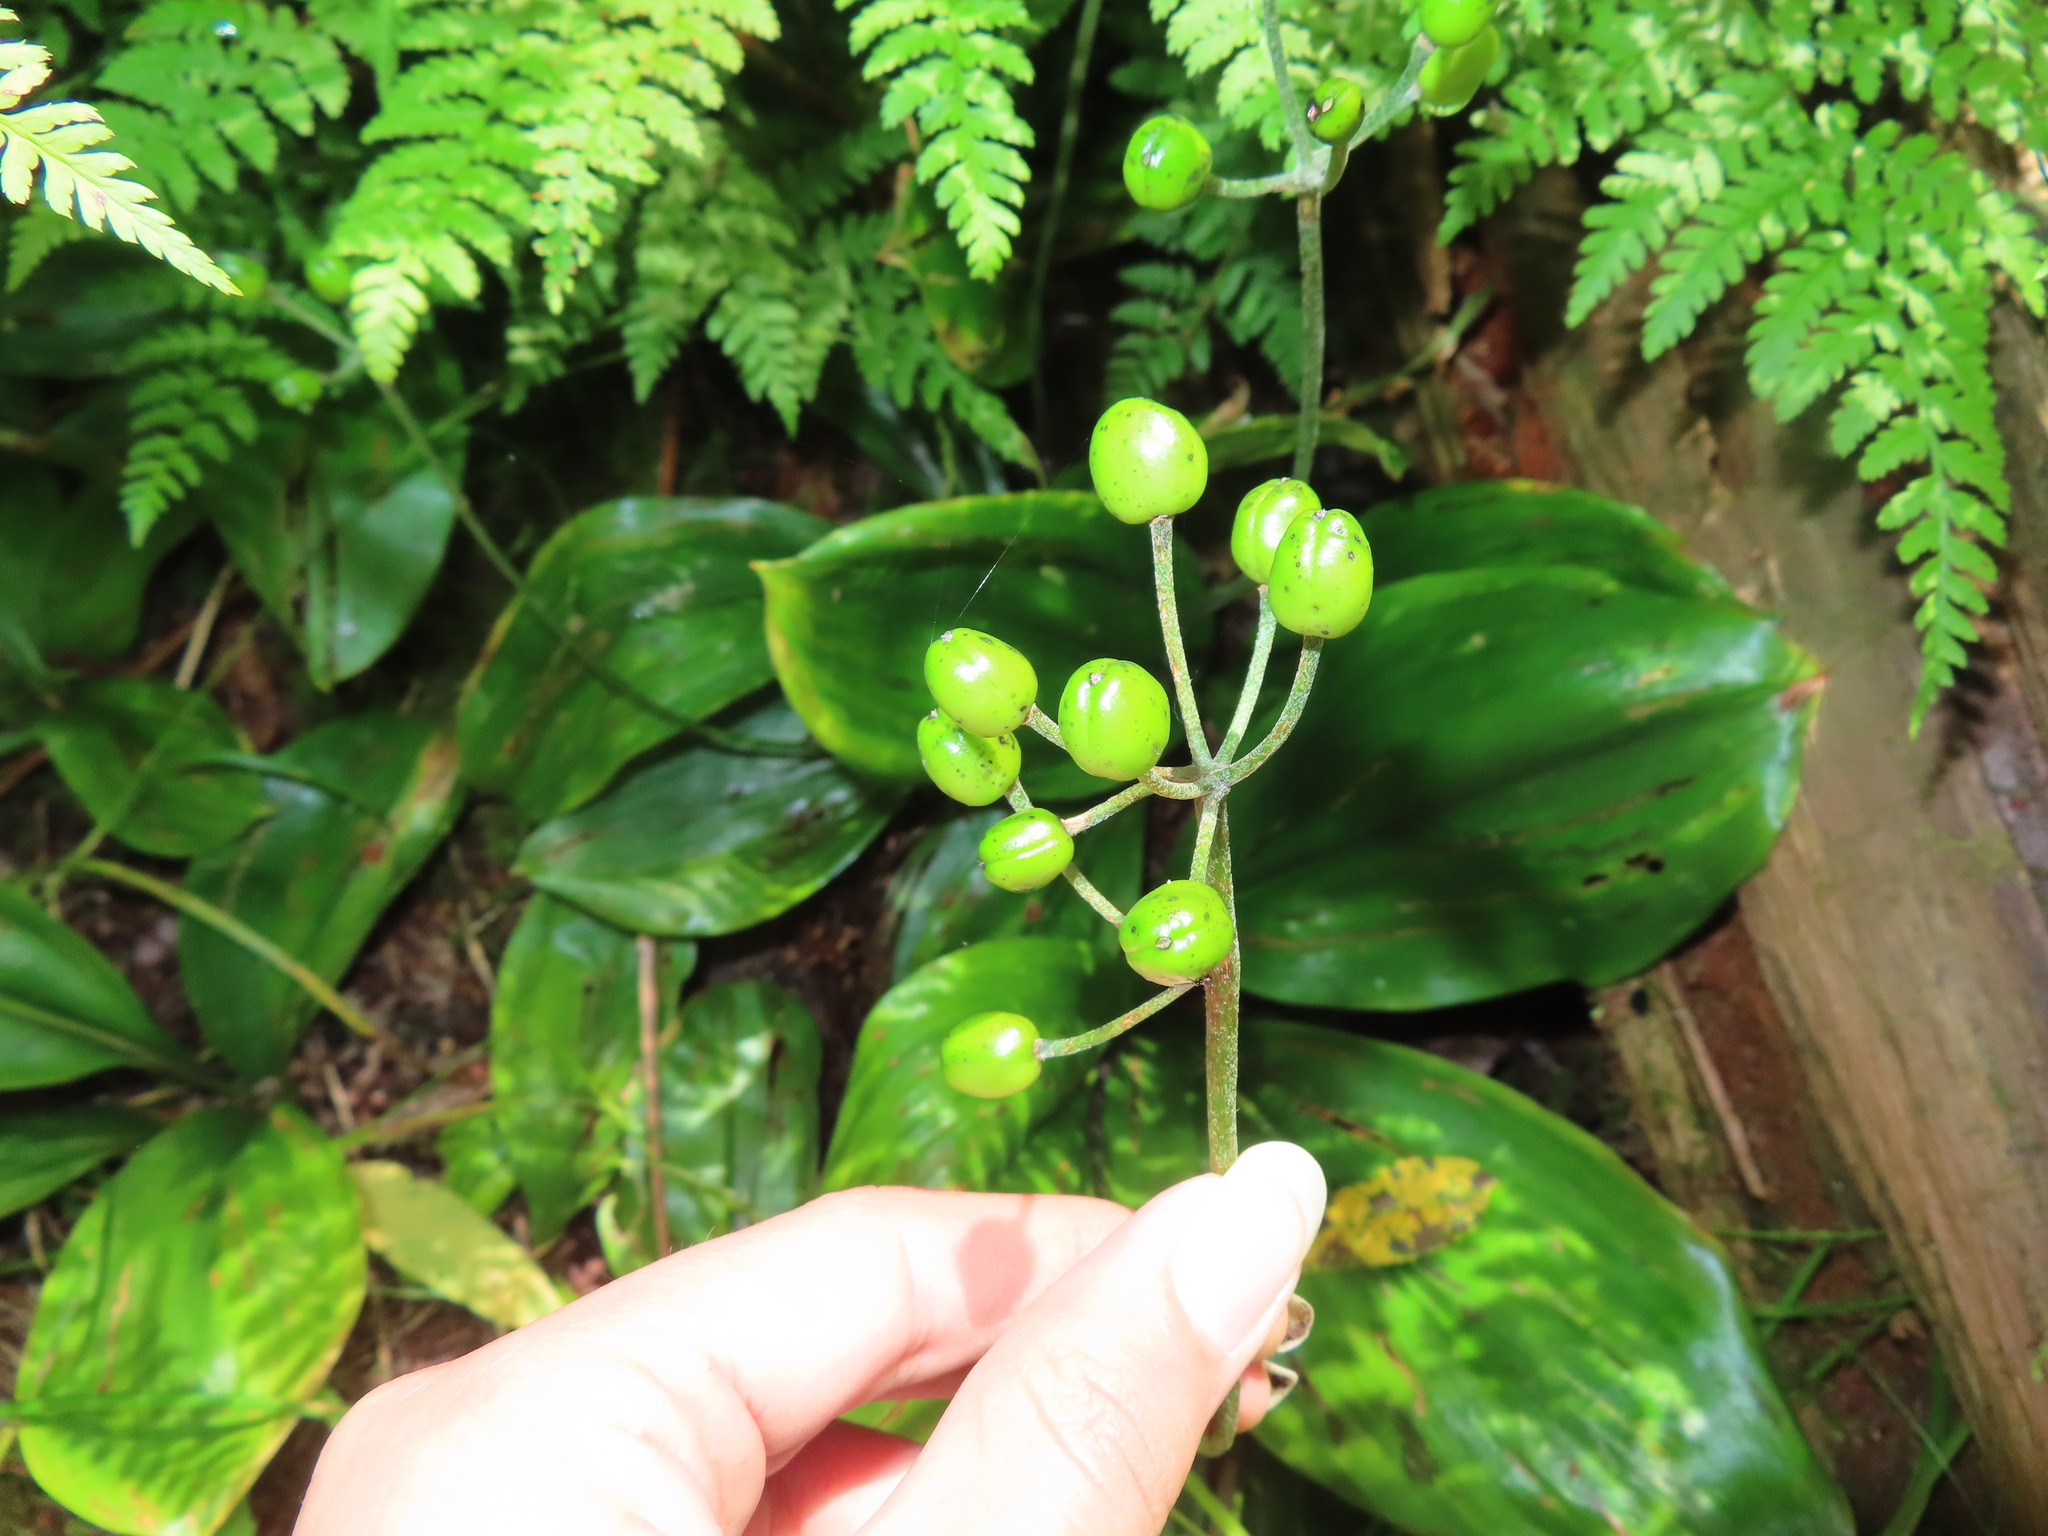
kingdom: Plantae
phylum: Tracheophyta
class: Liliopsida
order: Liliales
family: Liliaceae
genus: Clintonia
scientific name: Clintonia borealis
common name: Yellow clintonia
